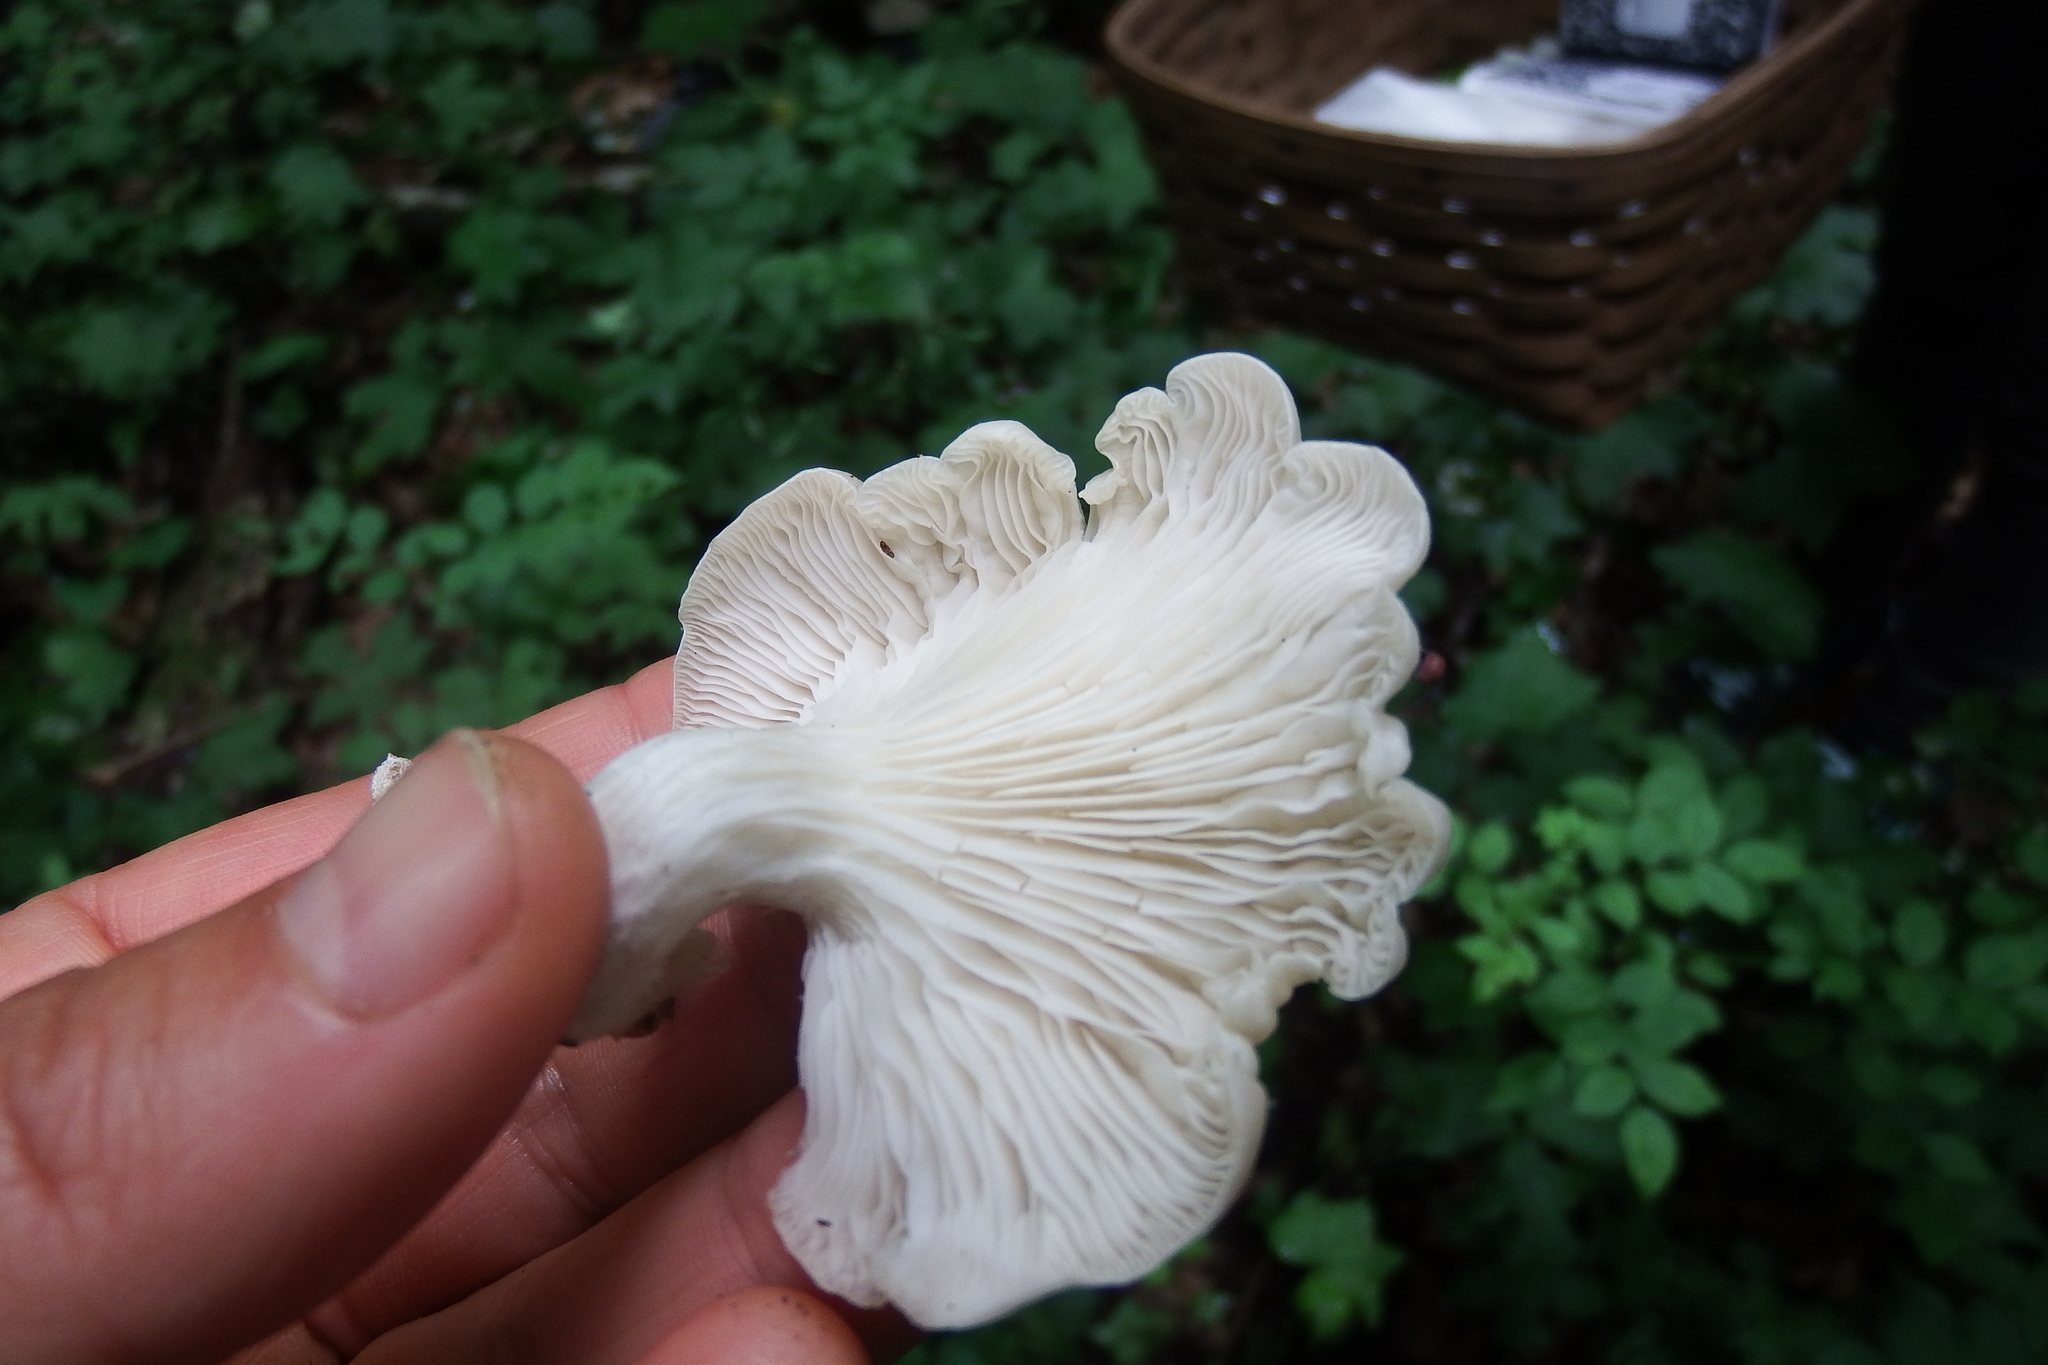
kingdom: Fungi
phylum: Basidiomycota
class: Agaricomycetes
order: Agaricales
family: Pleurotaceae
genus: Pleurotus
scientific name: Pleurotus pulmonarius
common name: Pale oyster
